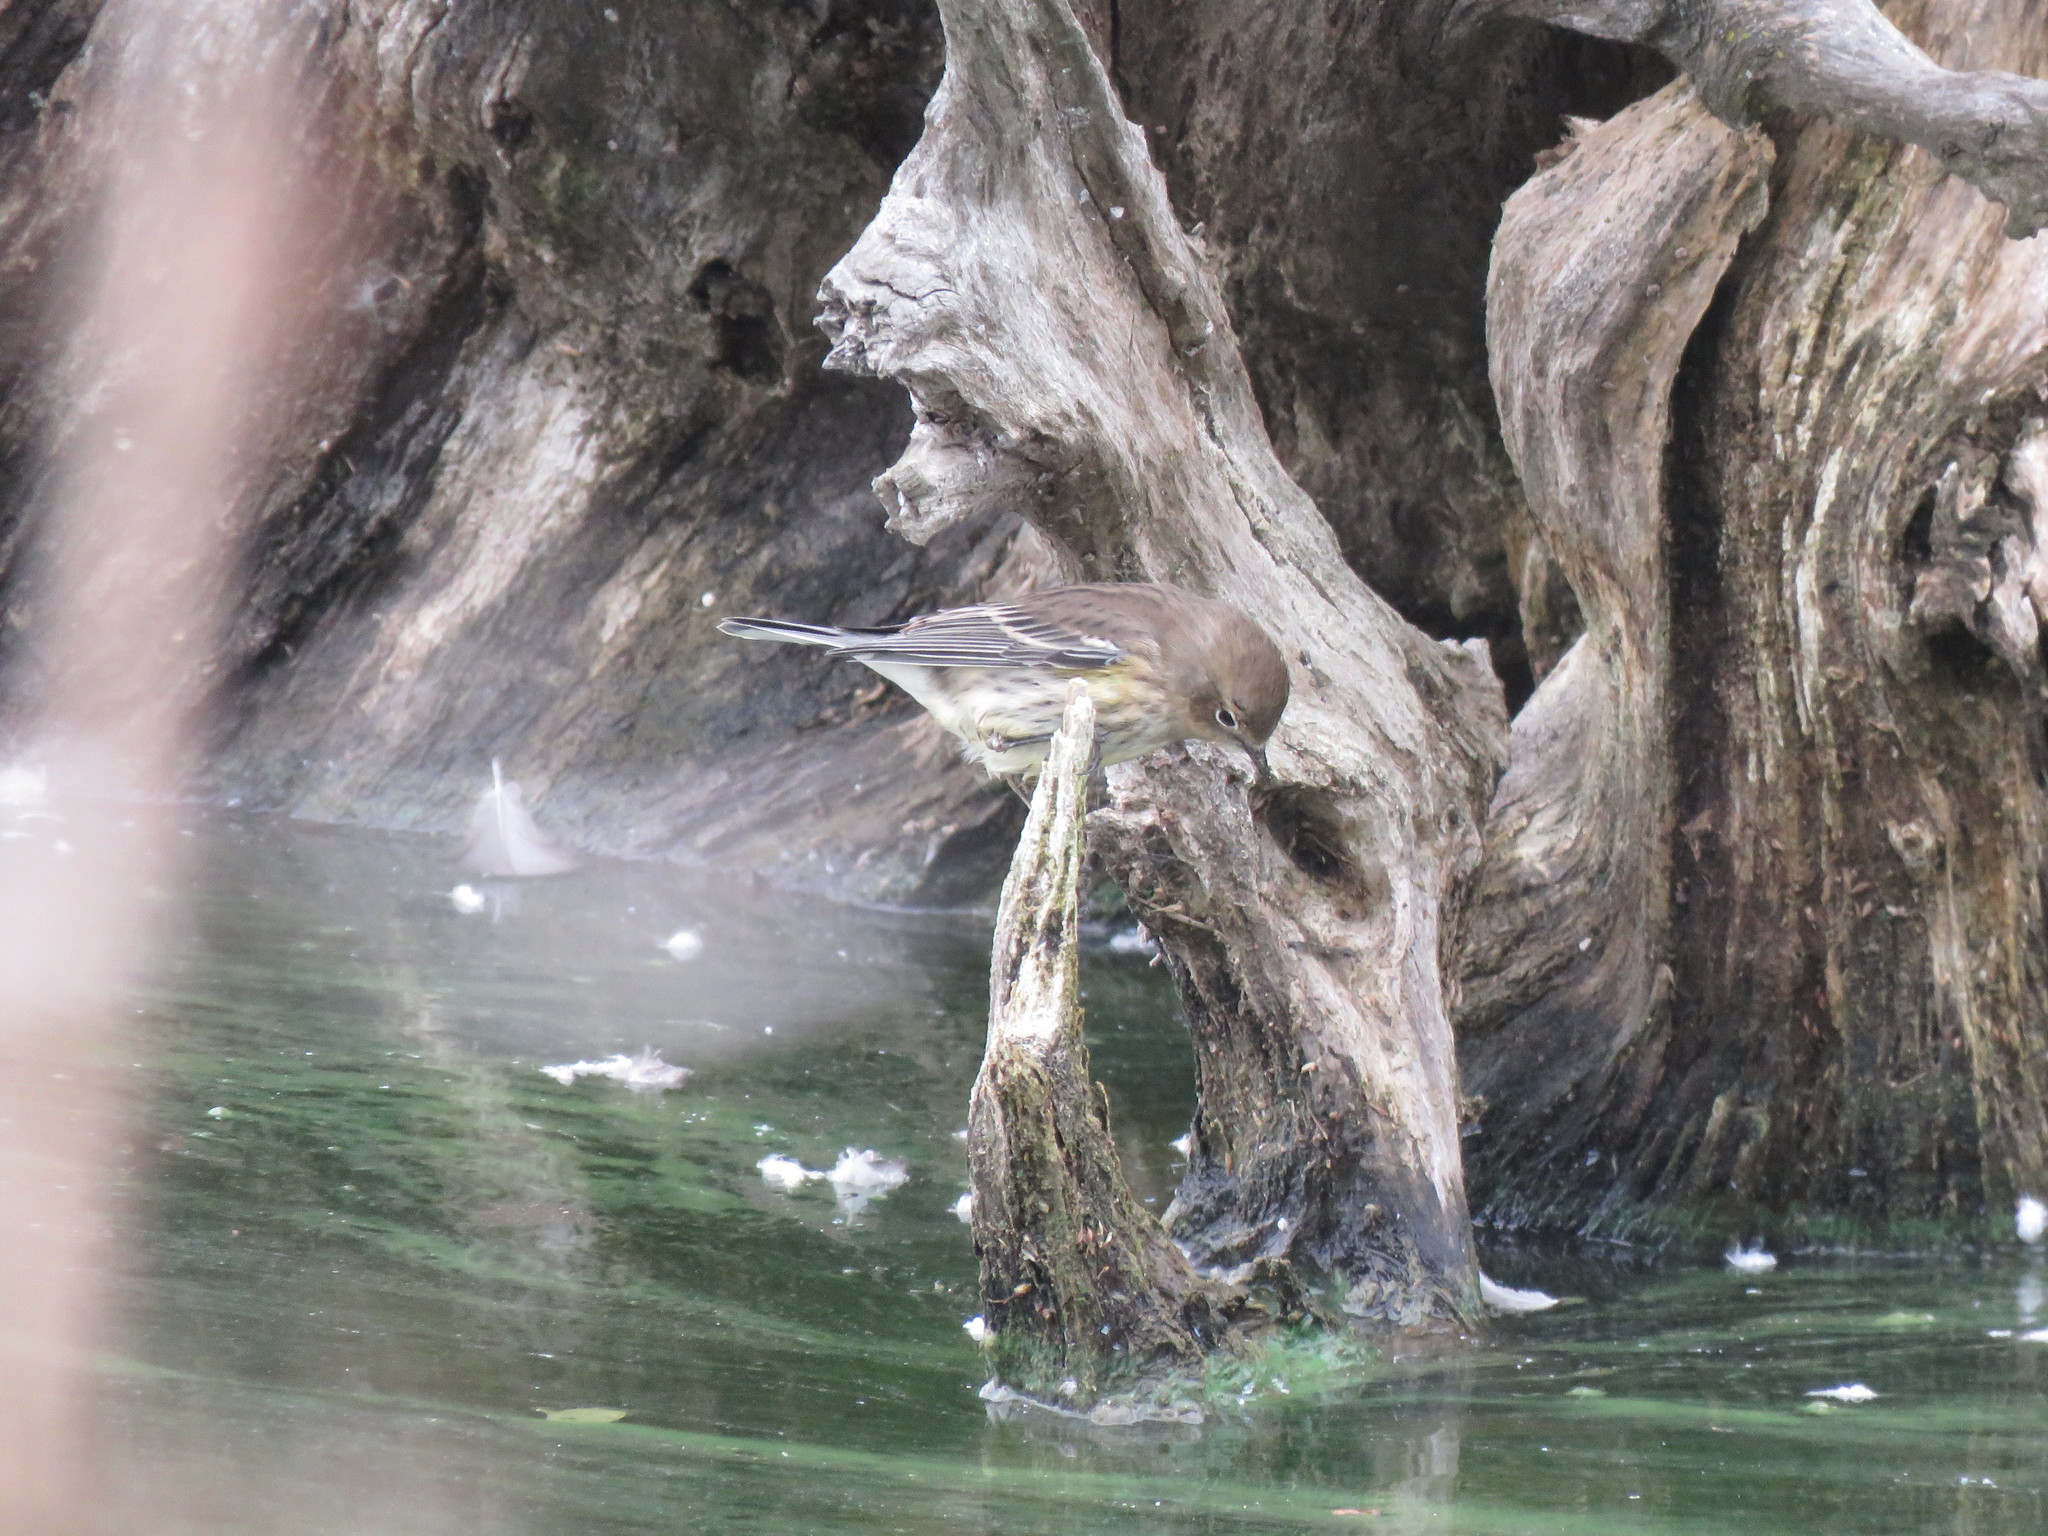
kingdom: Animalia
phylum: Chordata
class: Aves
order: Passeriformes
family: Parulidae
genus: Setophaga
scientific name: Setophaga coronata
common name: Myrtle warbler
